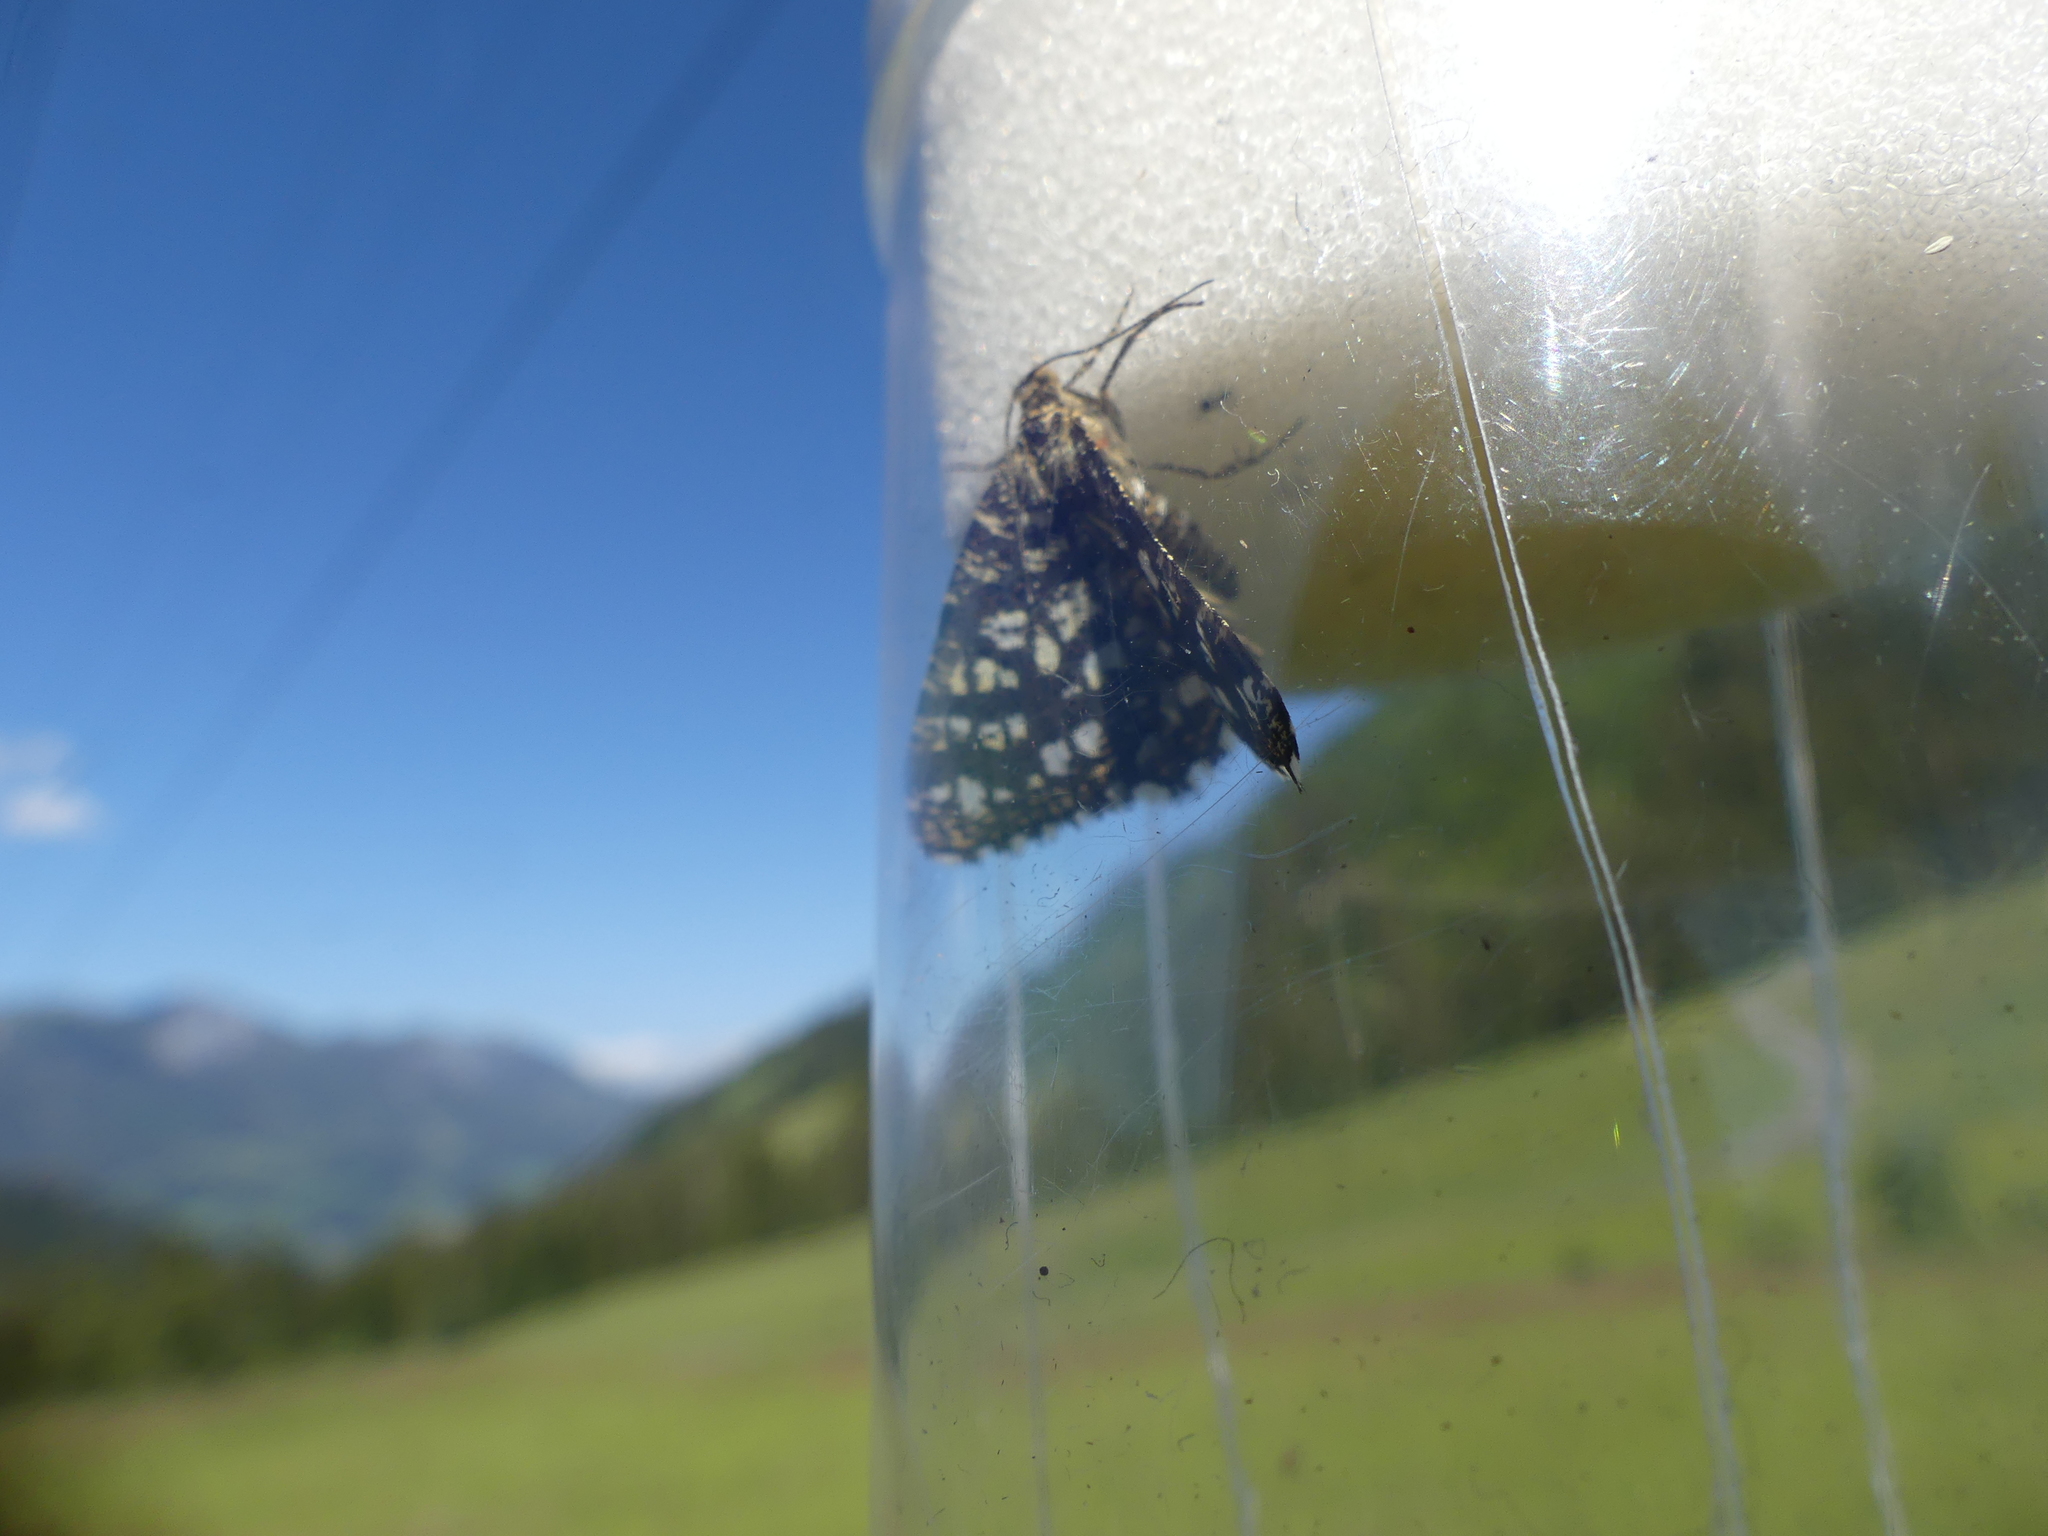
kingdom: Animalia
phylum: Arthropoda
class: Insecta
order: Lepidoptera
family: Geometridae
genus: Chiasmia
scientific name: Chiasmia clathrata
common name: Latticed heath
